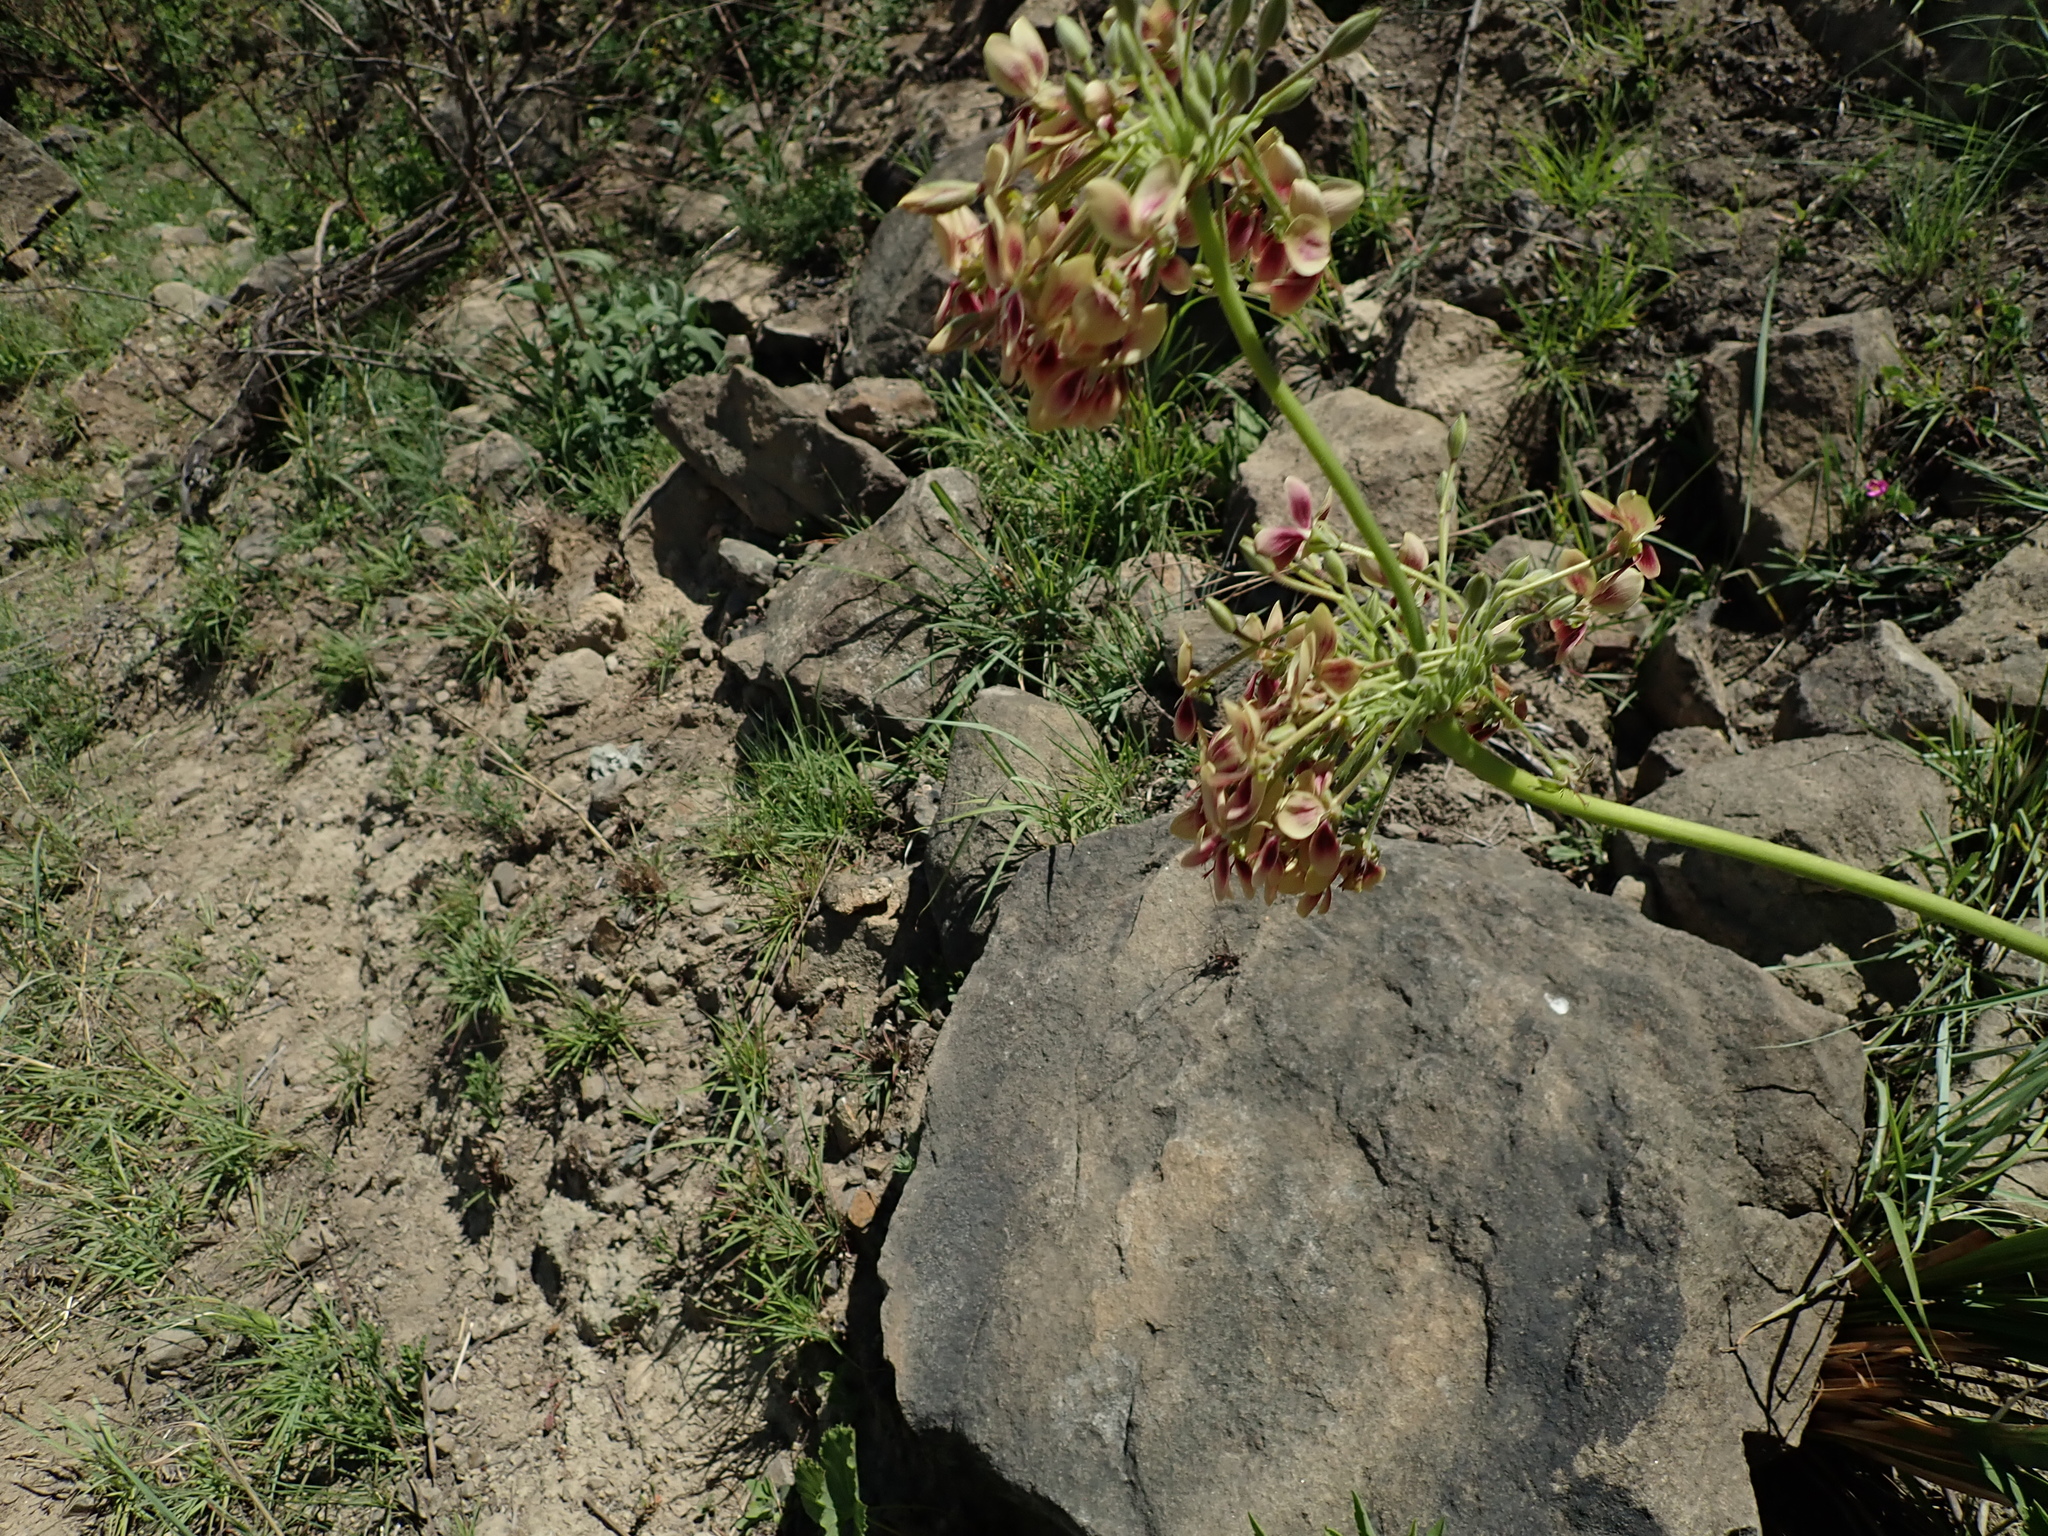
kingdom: Plantae
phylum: Tracheophyta
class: Magnoliopsida
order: Geraniales
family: Geraniaceae
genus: Pelargonium
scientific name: Pelargonium luridum
